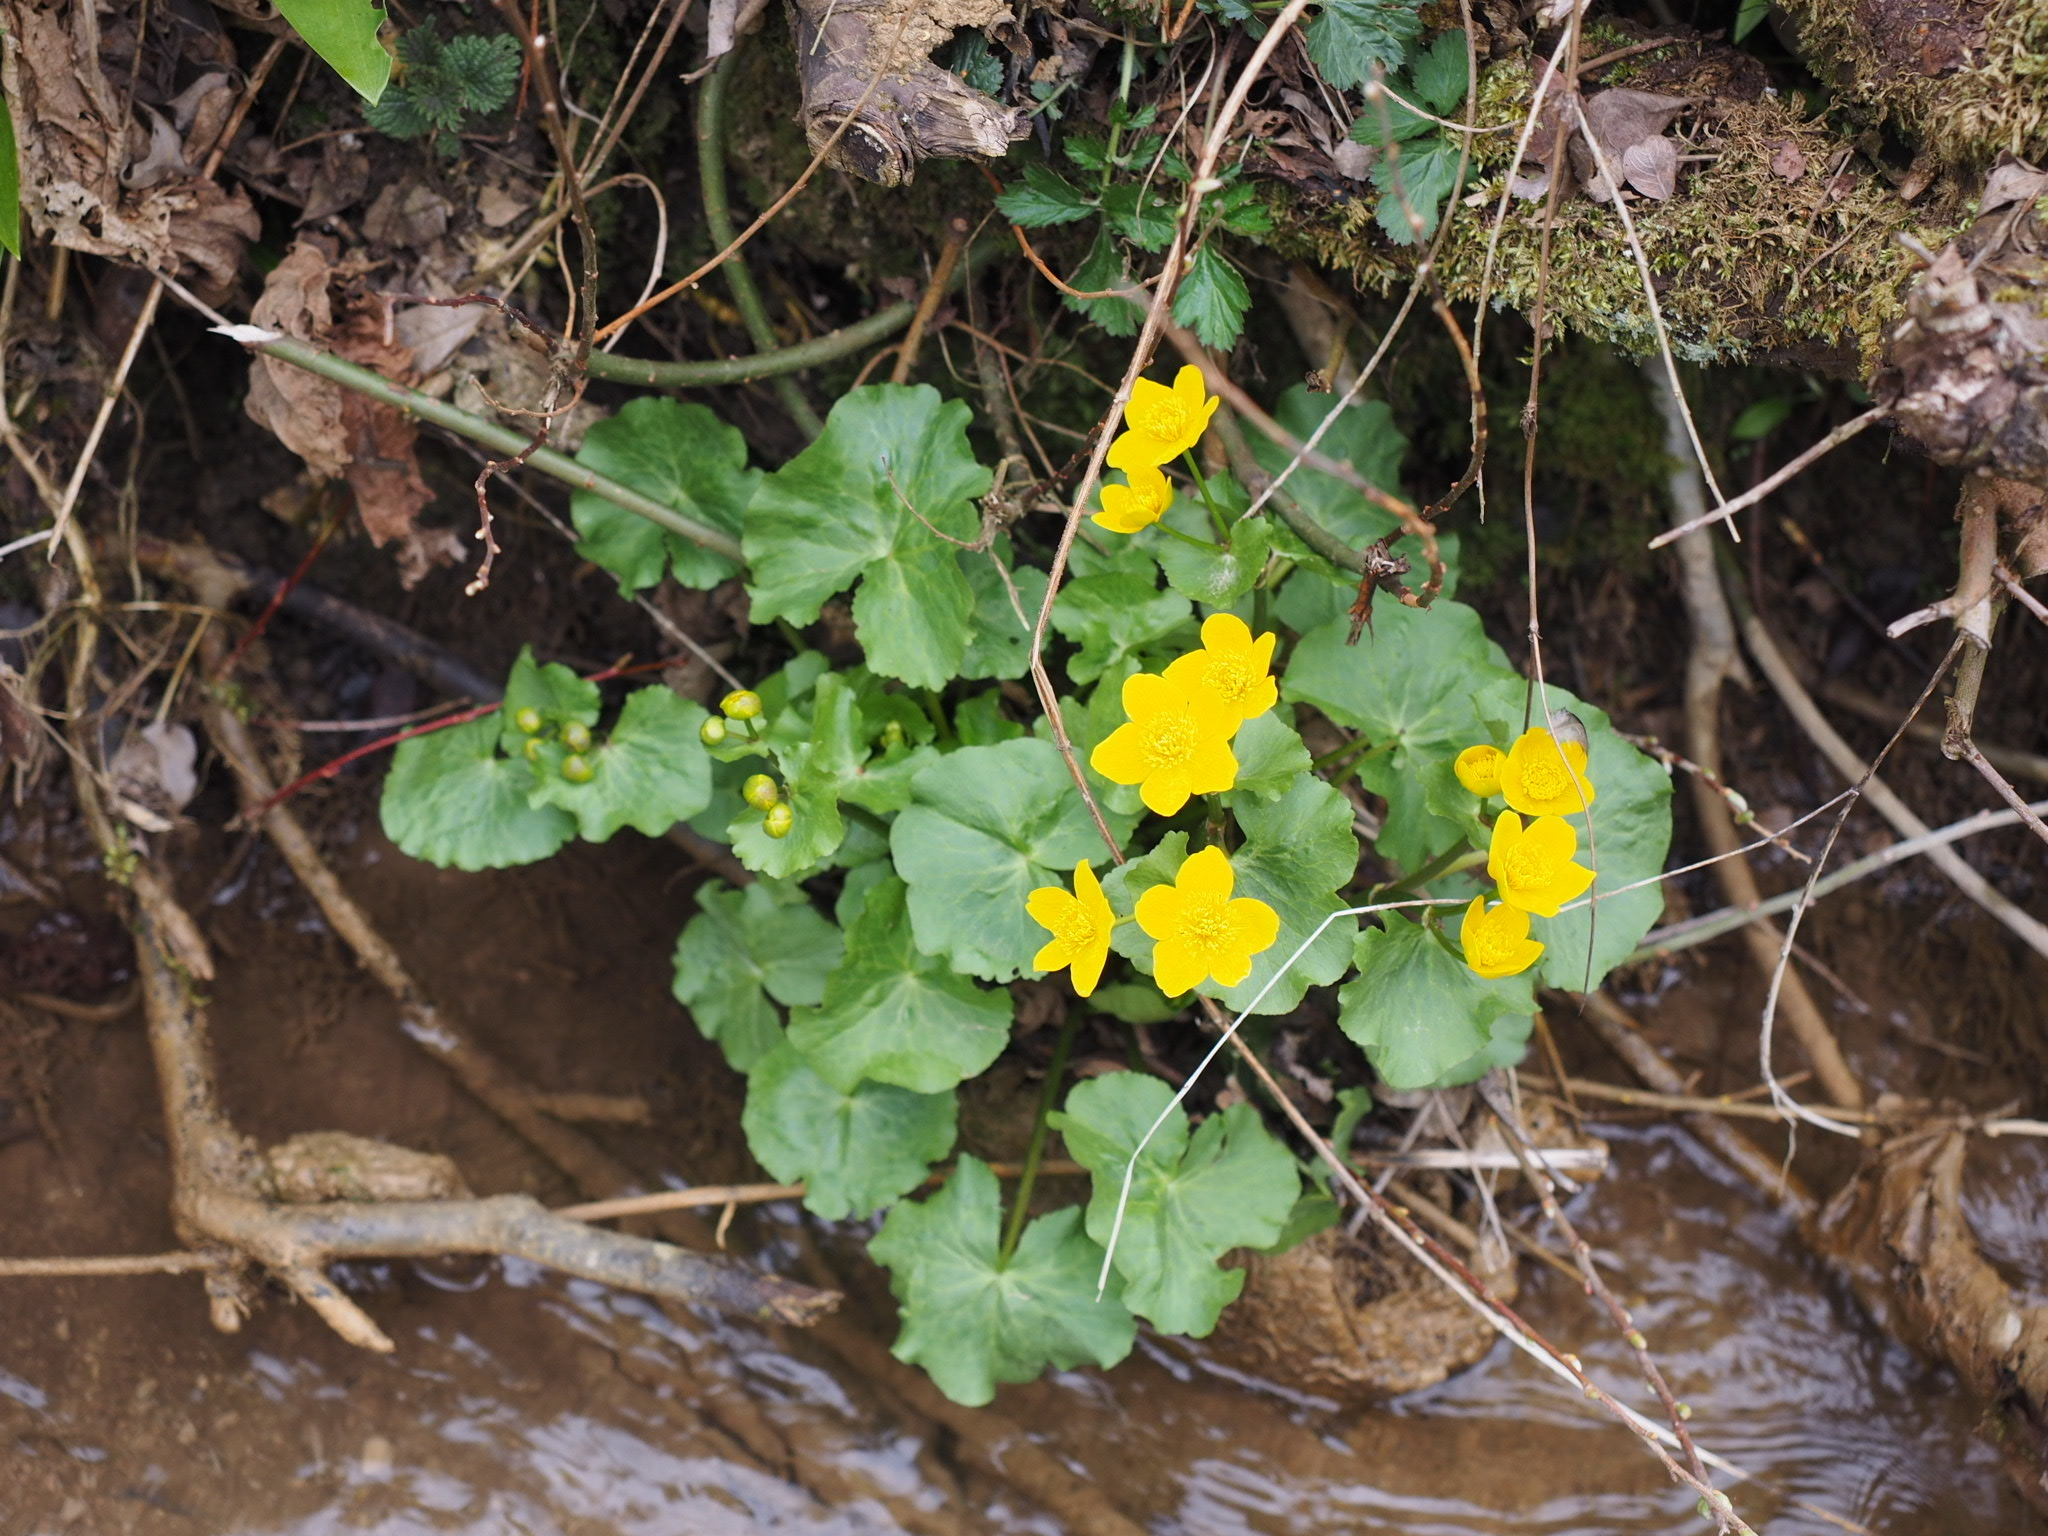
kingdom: Plantae
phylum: Tracheophyta
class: Magnoliopsida
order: Ranunculales
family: Ranunculaceae
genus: Caltha
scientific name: Caltha palustris
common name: Marsh marigold
